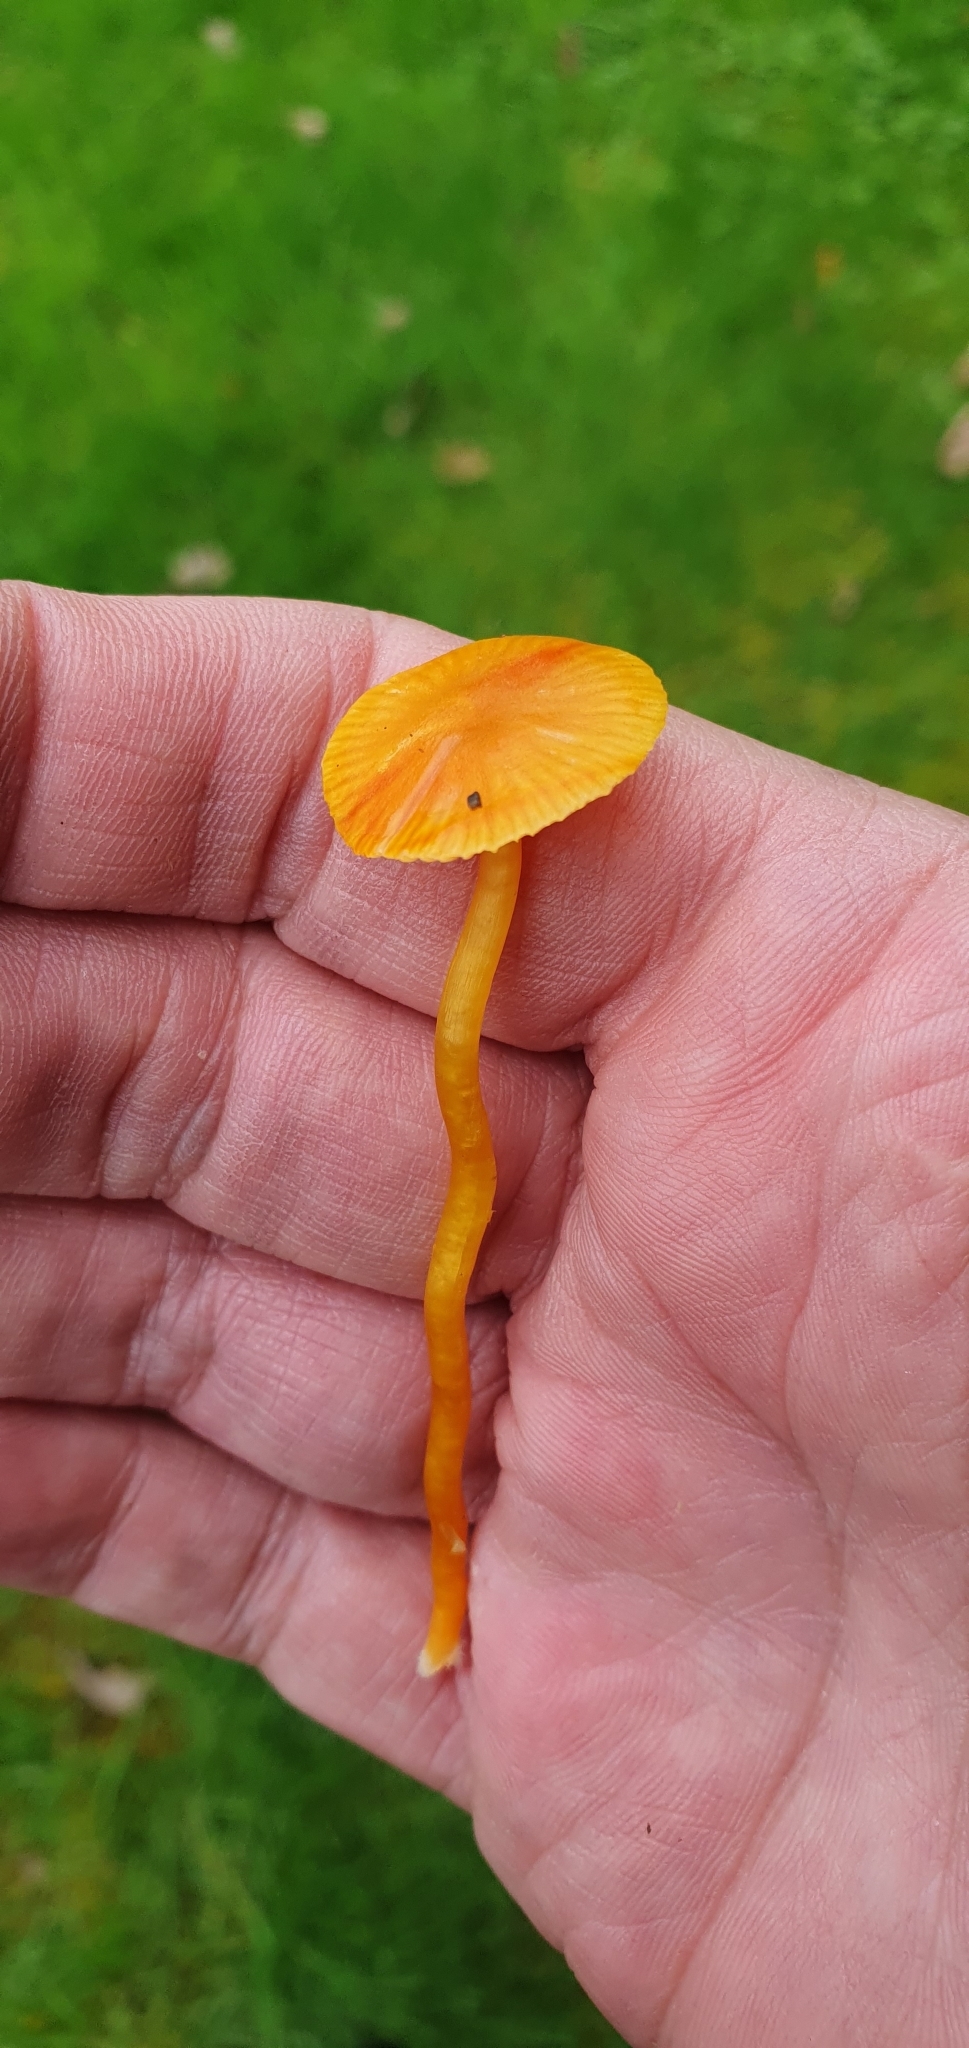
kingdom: Fungi
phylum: Basidiomycota
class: Agaricomycetes
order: Agaricales
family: Hygrophoraceae
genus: Hygrocybe
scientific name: Hygrocybe insipida
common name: Spangle waxcap
